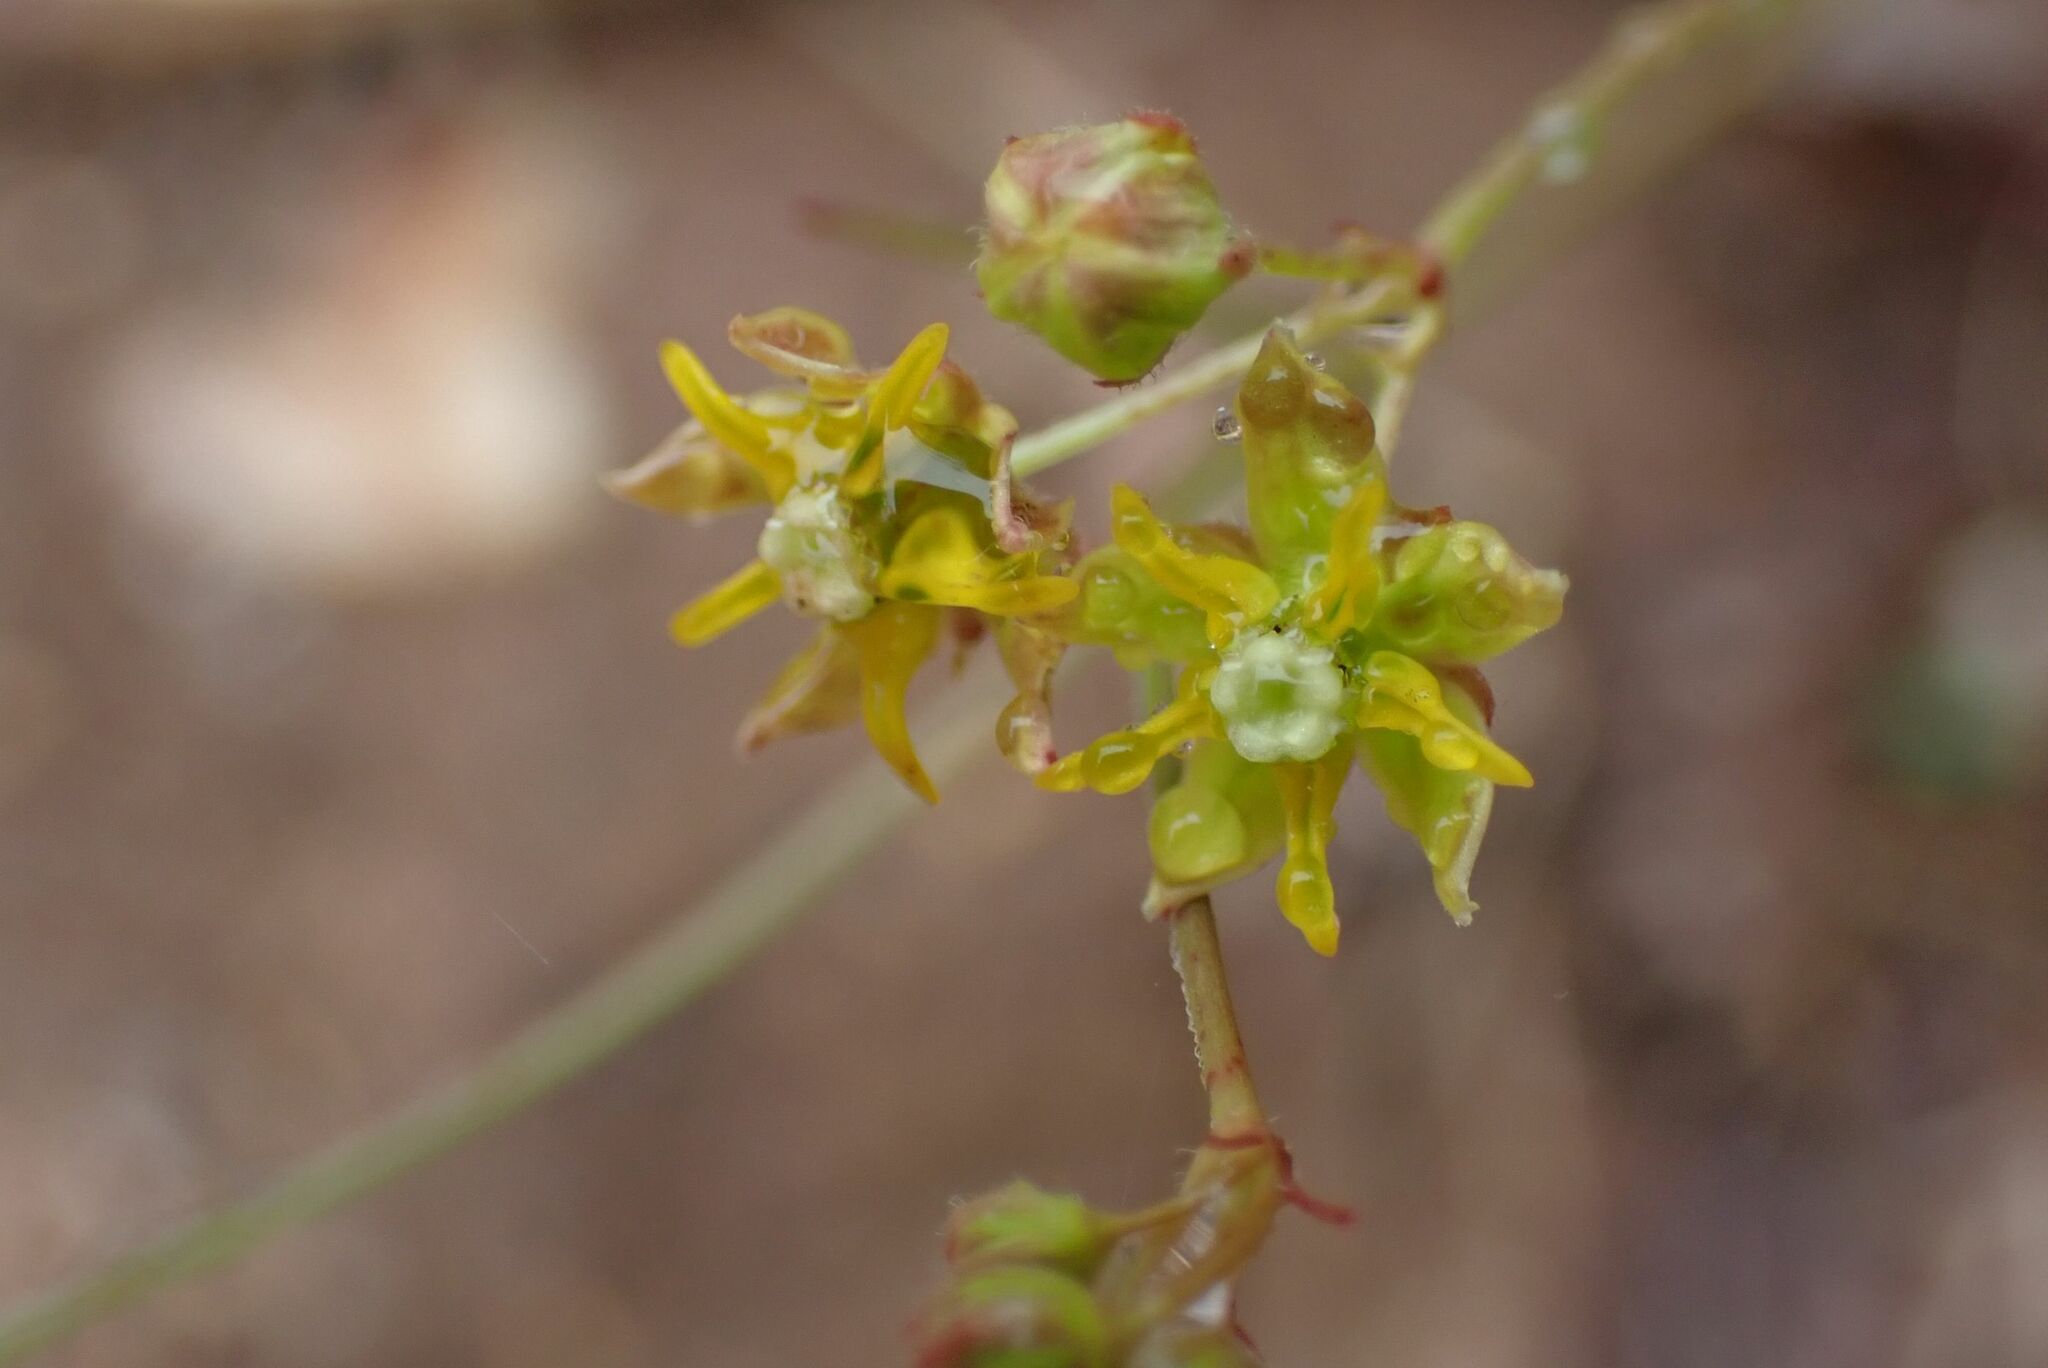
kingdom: Plantae
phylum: Tracheophyta
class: Magnoliopsida
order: Gentianales
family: Apocynaceae
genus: Asclepias
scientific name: Asclepias aurea
